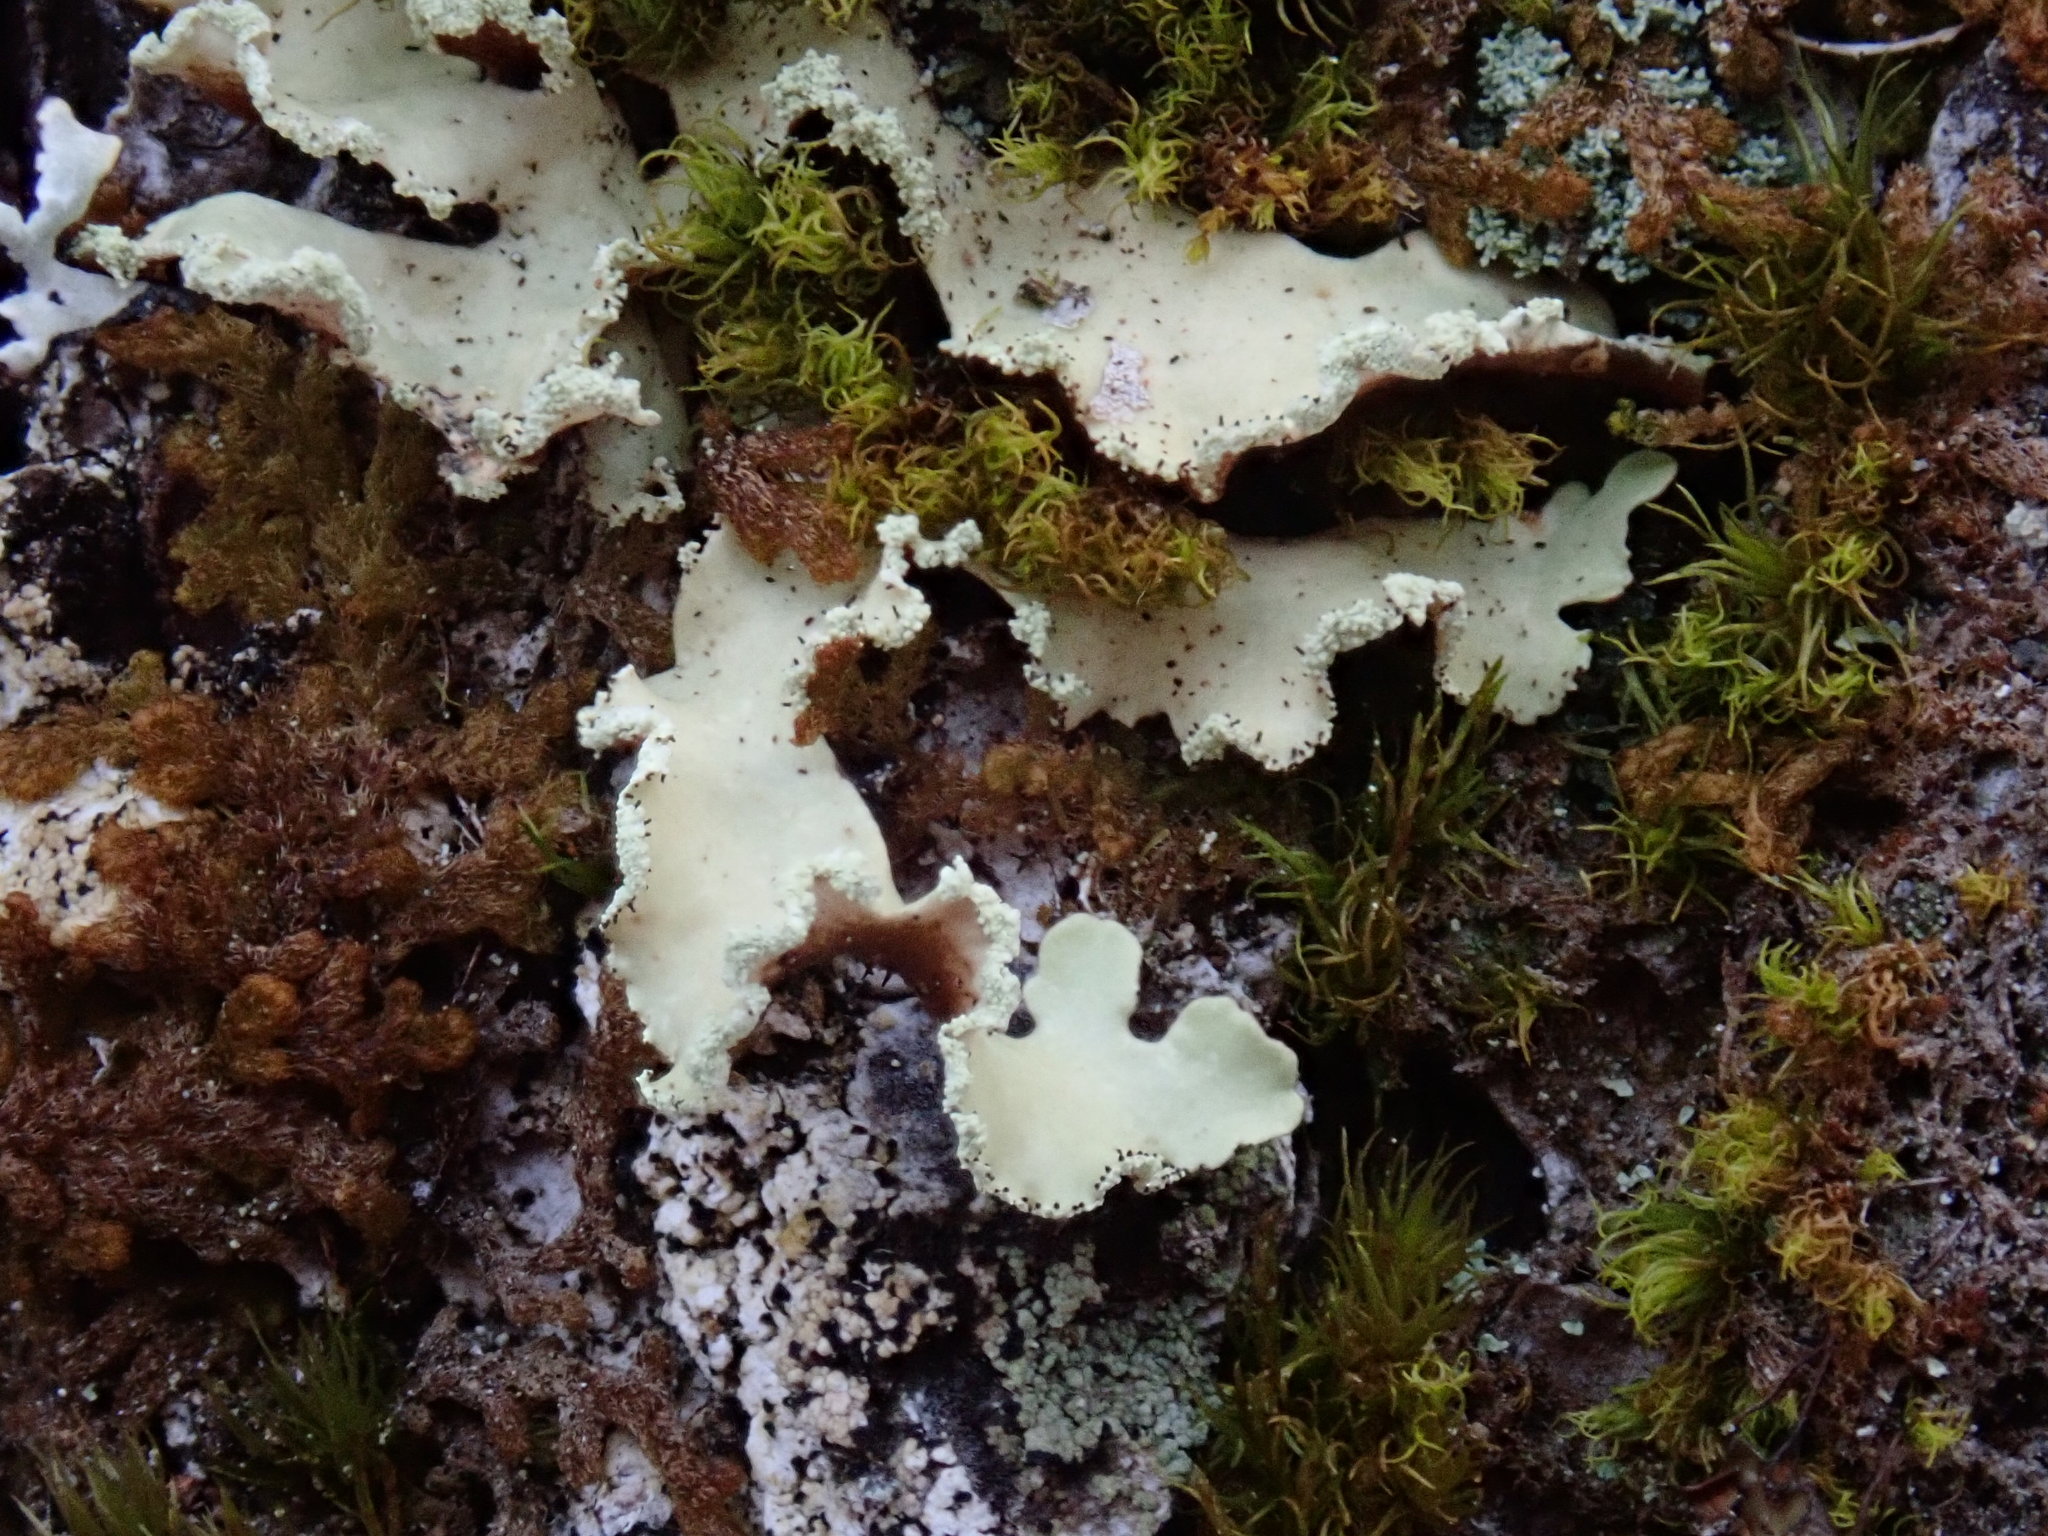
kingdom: Fungi
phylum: Ascomycota
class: Lecanoromycetes
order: Lecanorales
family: Parmeliaceae
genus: Usnocetraria
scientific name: Usnocetraria oakesiana
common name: Yellow ribbon lichen
